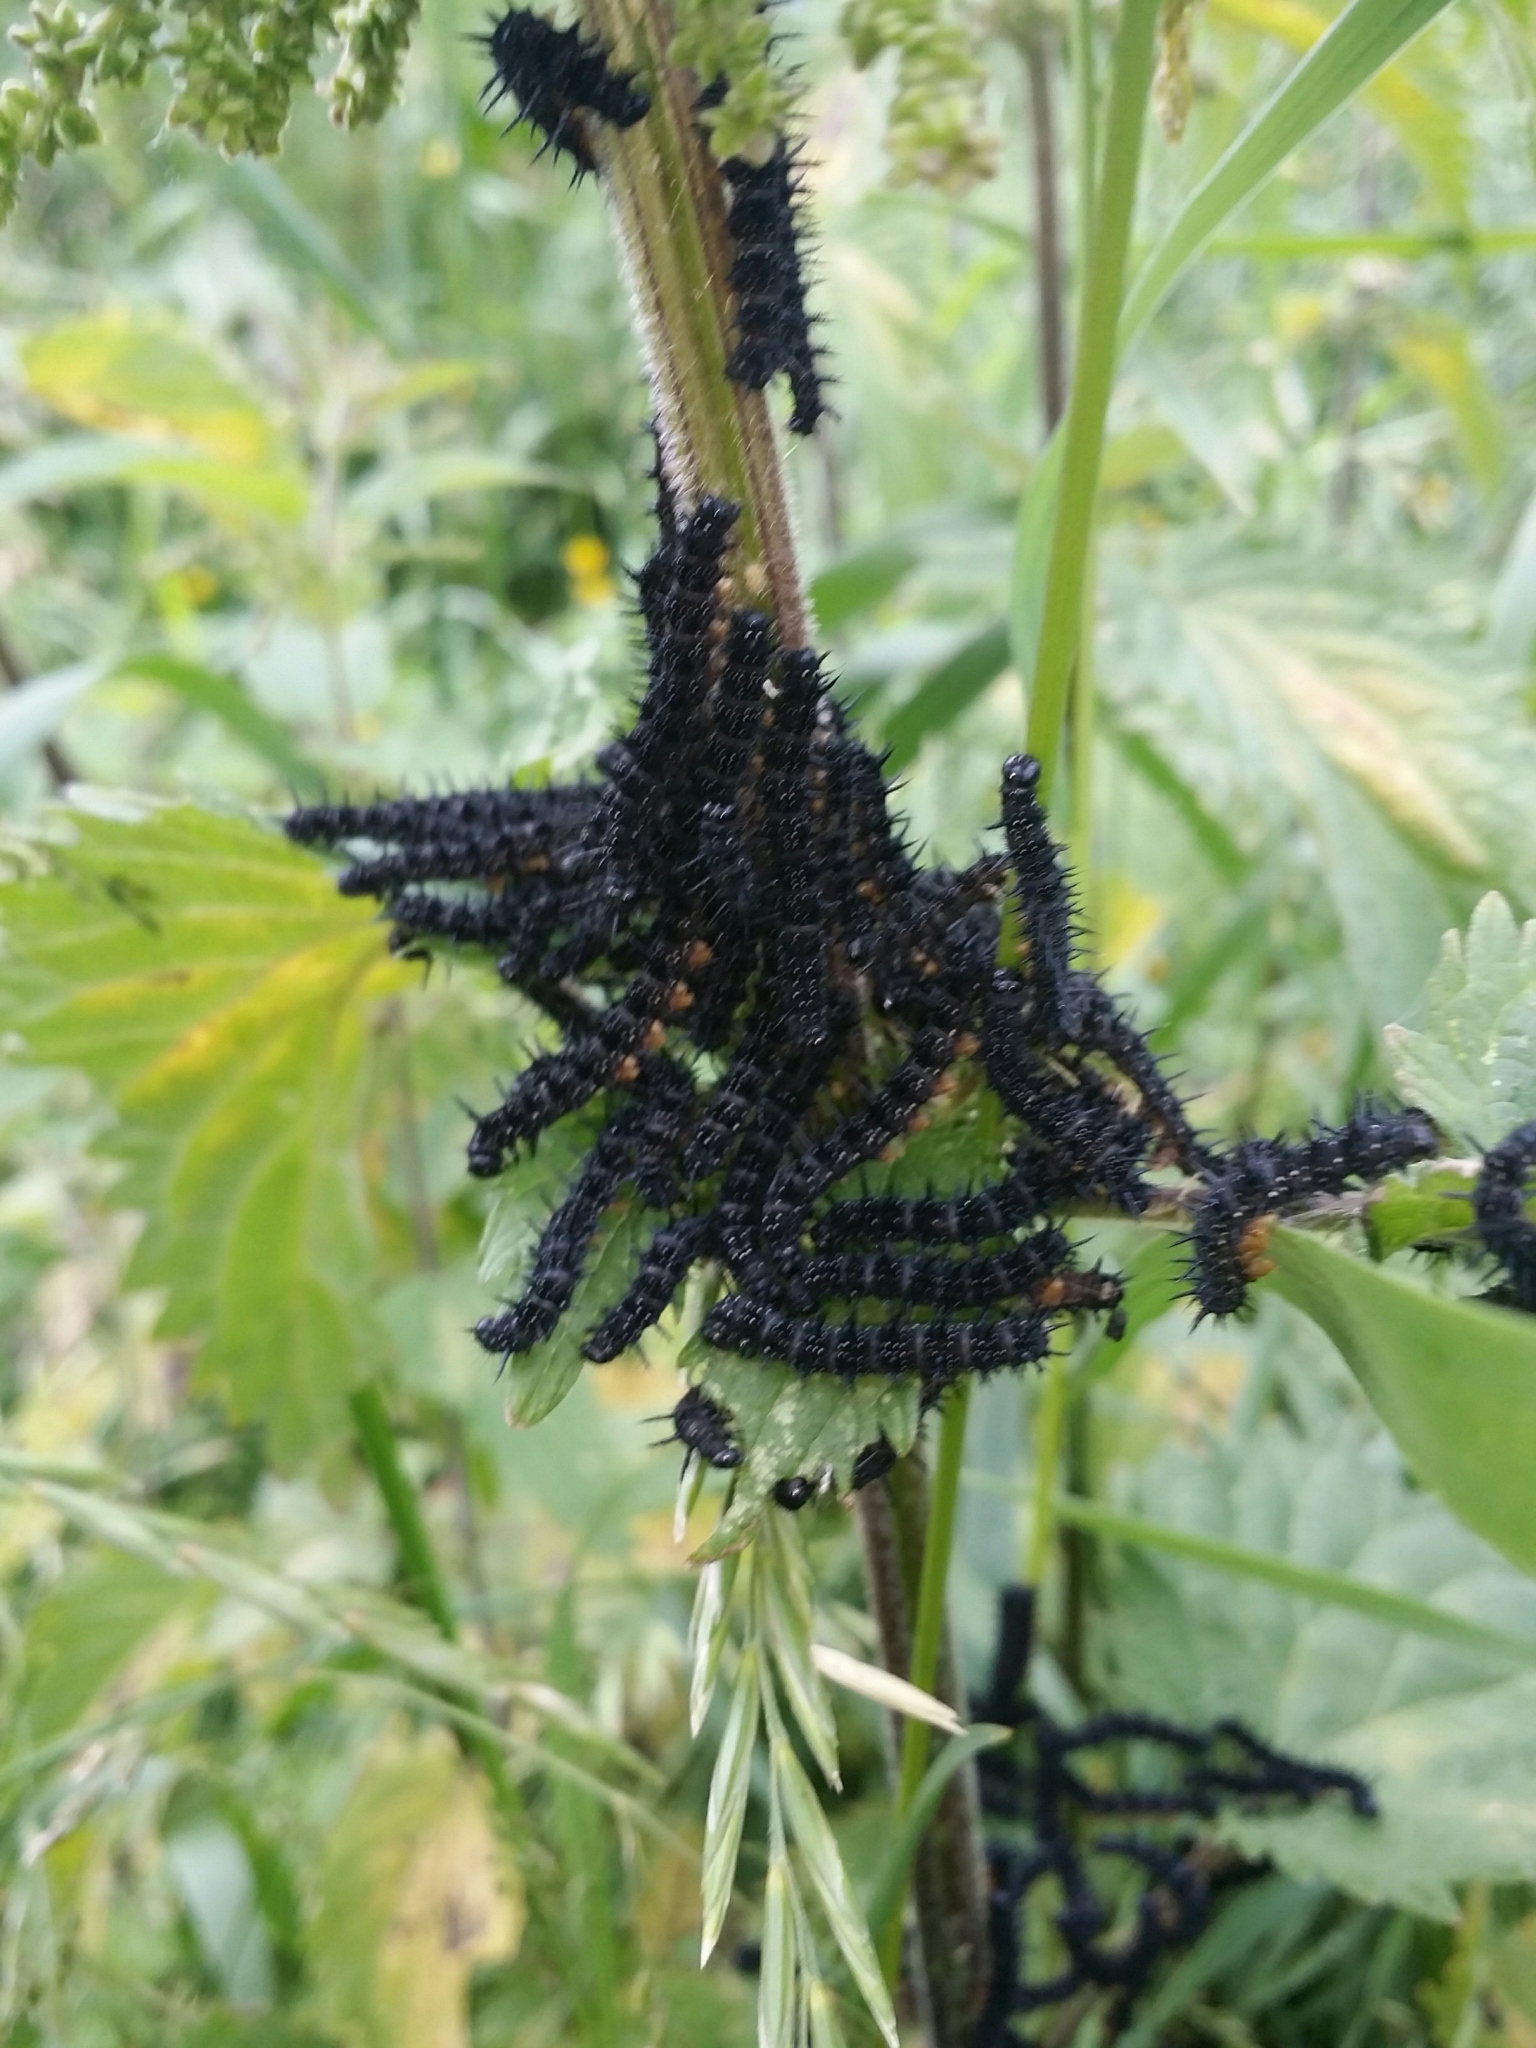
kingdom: Animalia
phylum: Arthropoda
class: Insecta
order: Lepidoptera
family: Nymphalidae
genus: Aglais
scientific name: Aglais io
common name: Peacock
